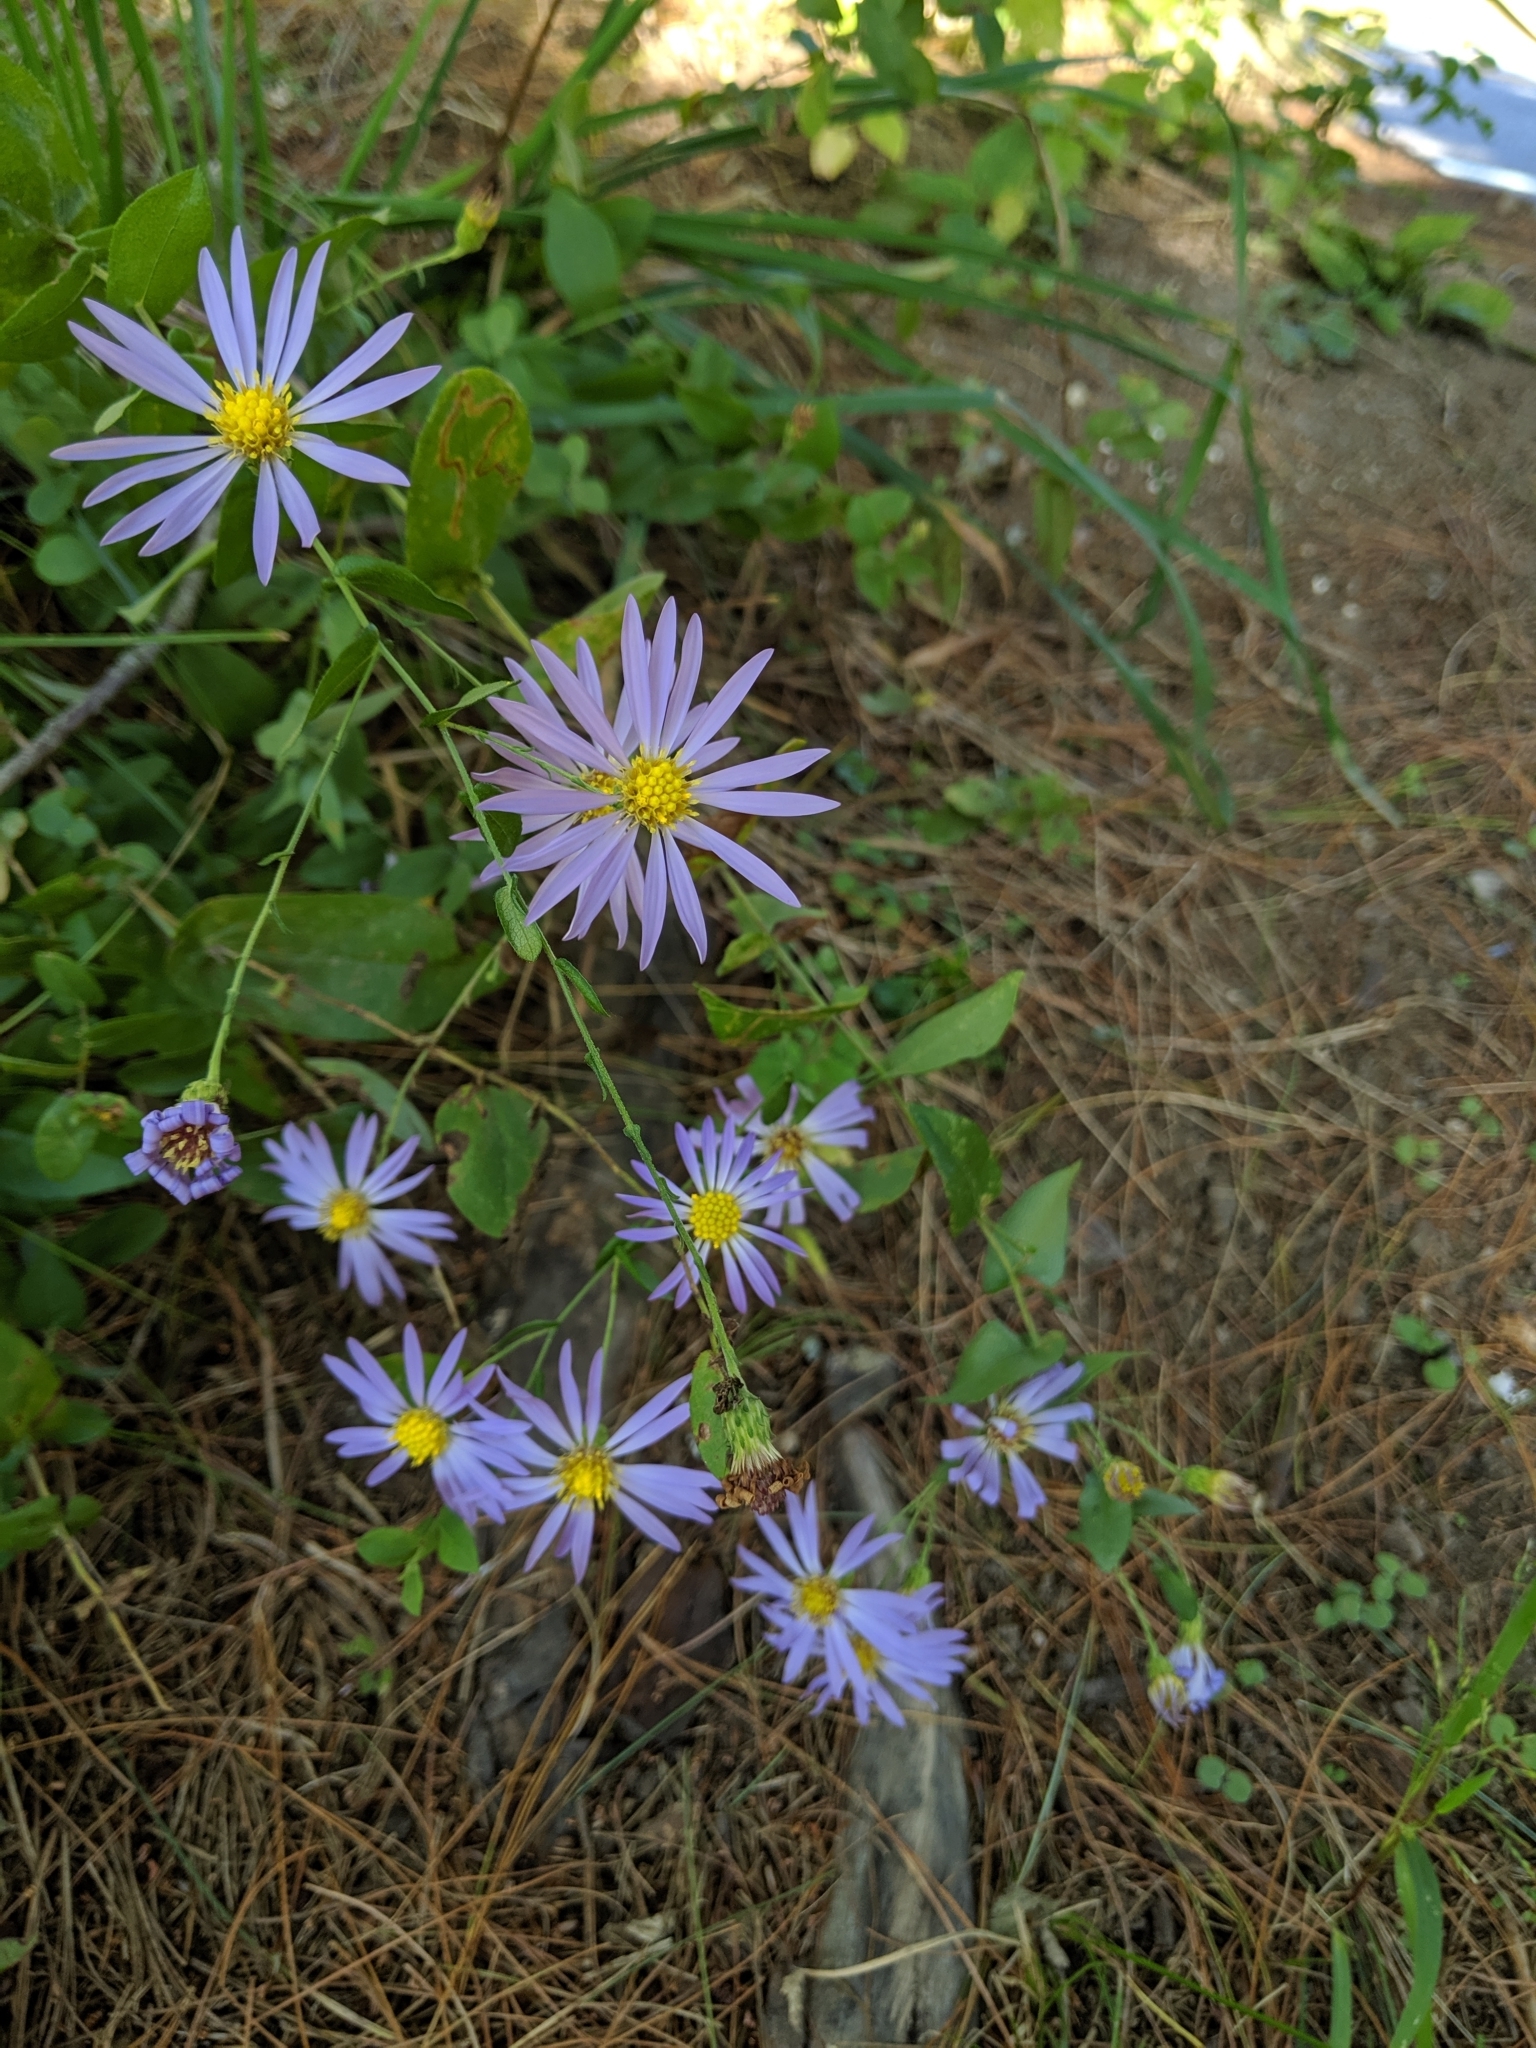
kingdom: Plantae
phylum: Tracheophyta
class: Magnoliopsida
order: Asterales
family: Asteraceae
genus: Symphyotrichum
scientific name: Symphyotrichum patens
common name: Late purple aster
